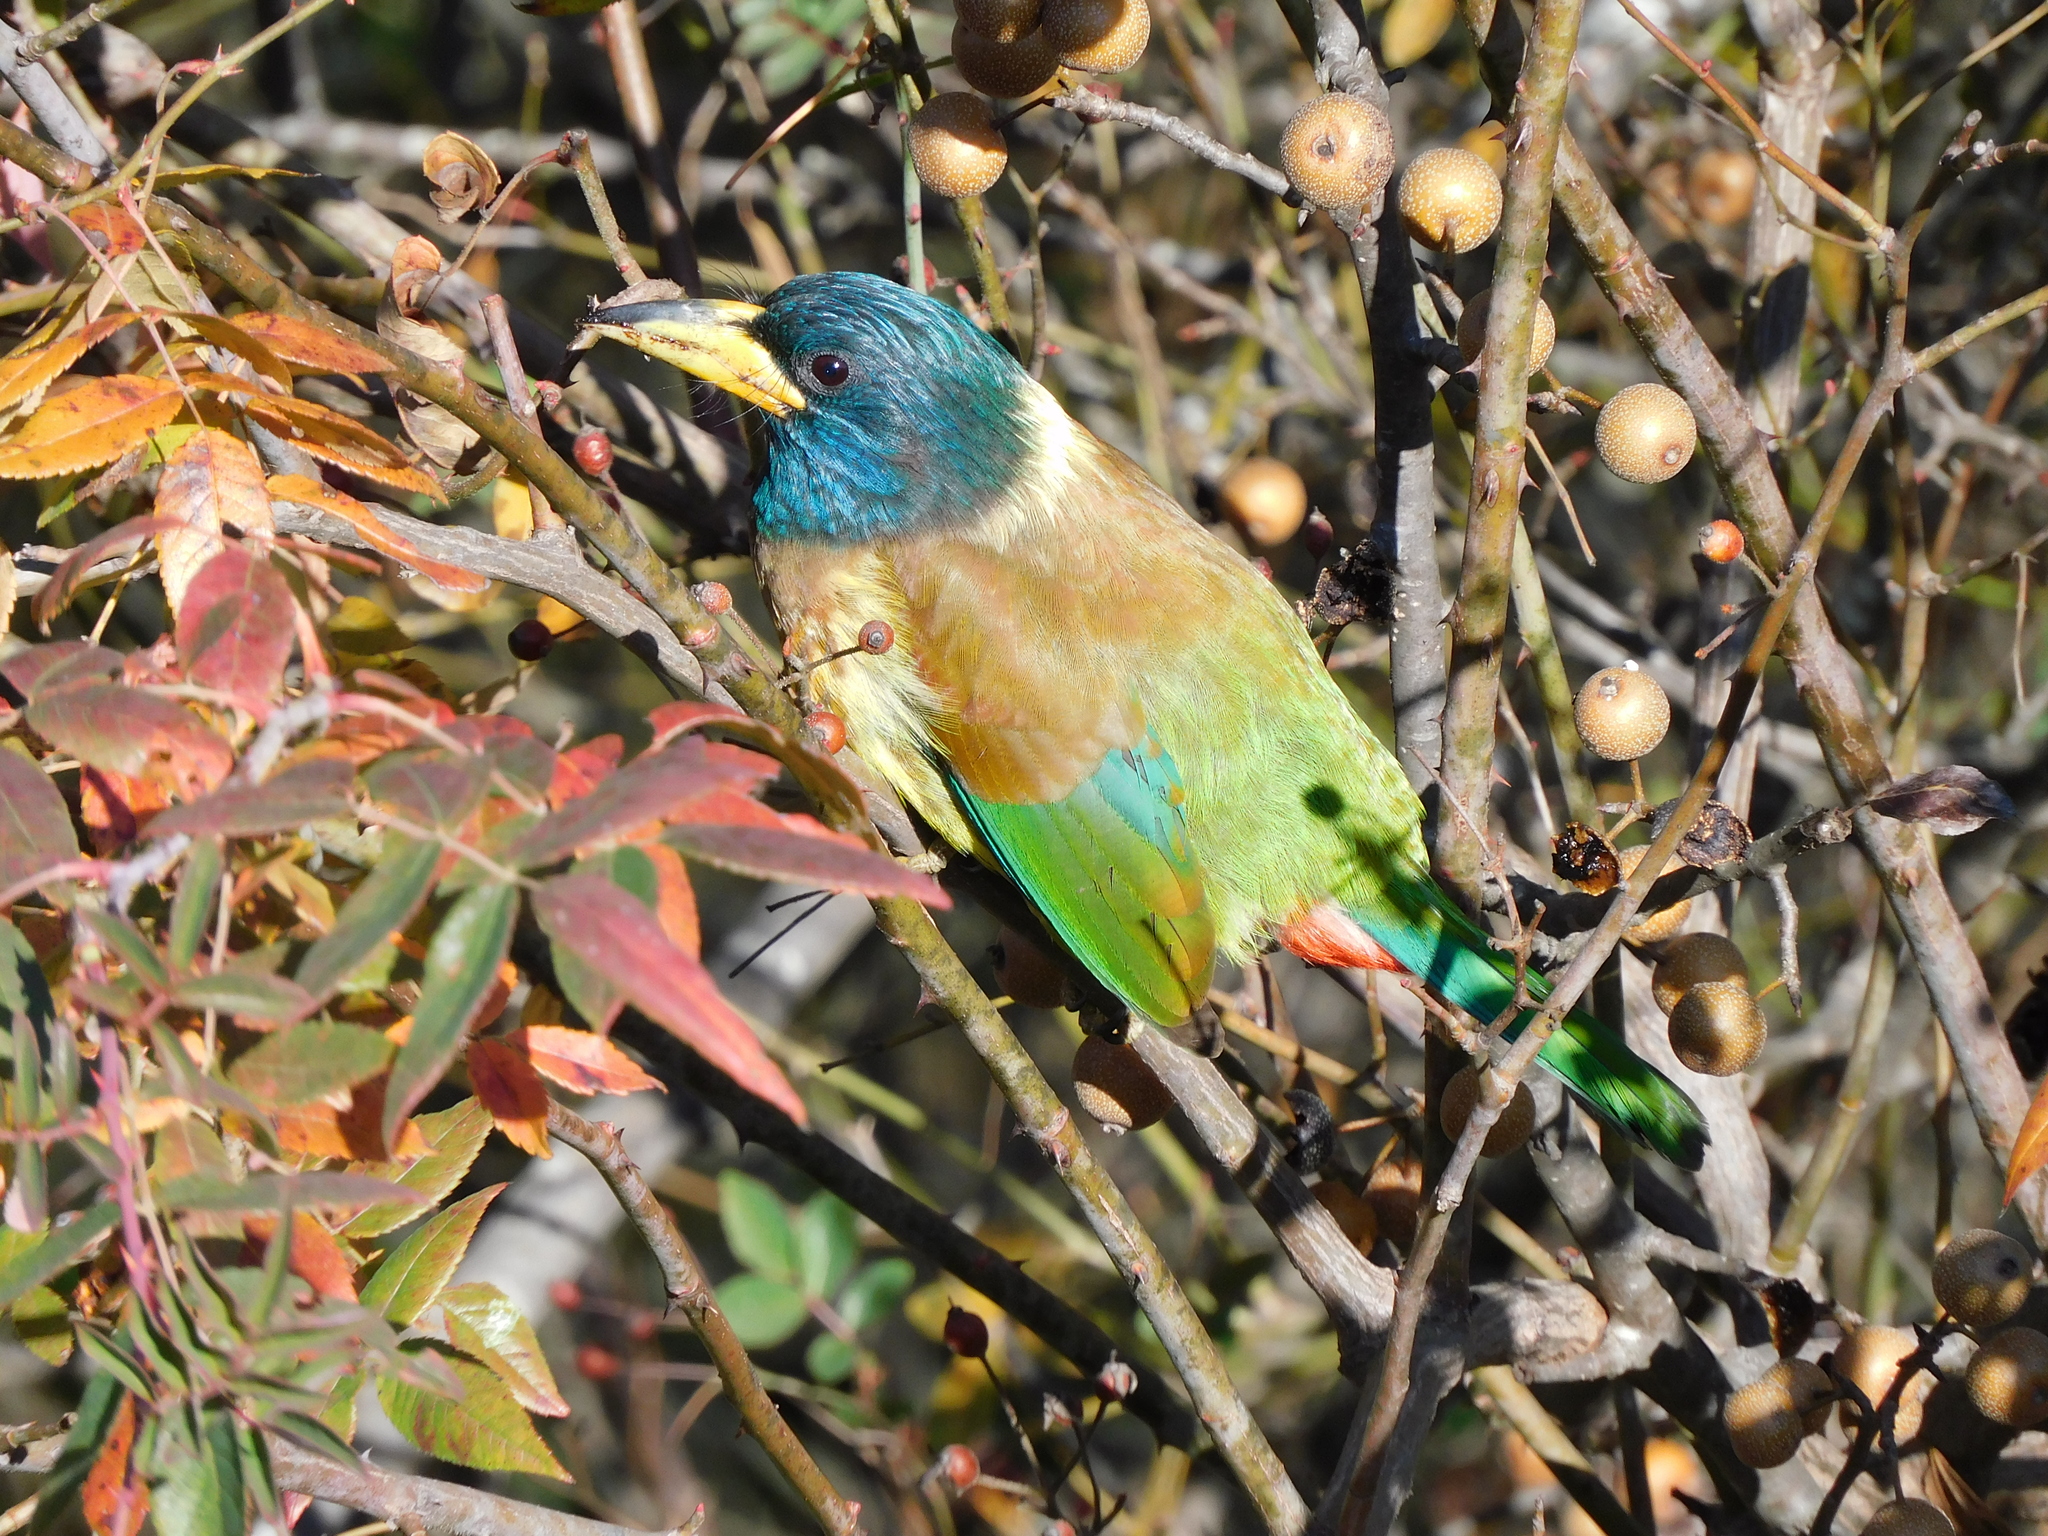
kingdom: Animalia
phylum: Chordata
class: Aves
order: Piciformes
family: Megalaimidae
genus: Psilopogon
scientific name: Psilopogon virens
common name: Great barbet
